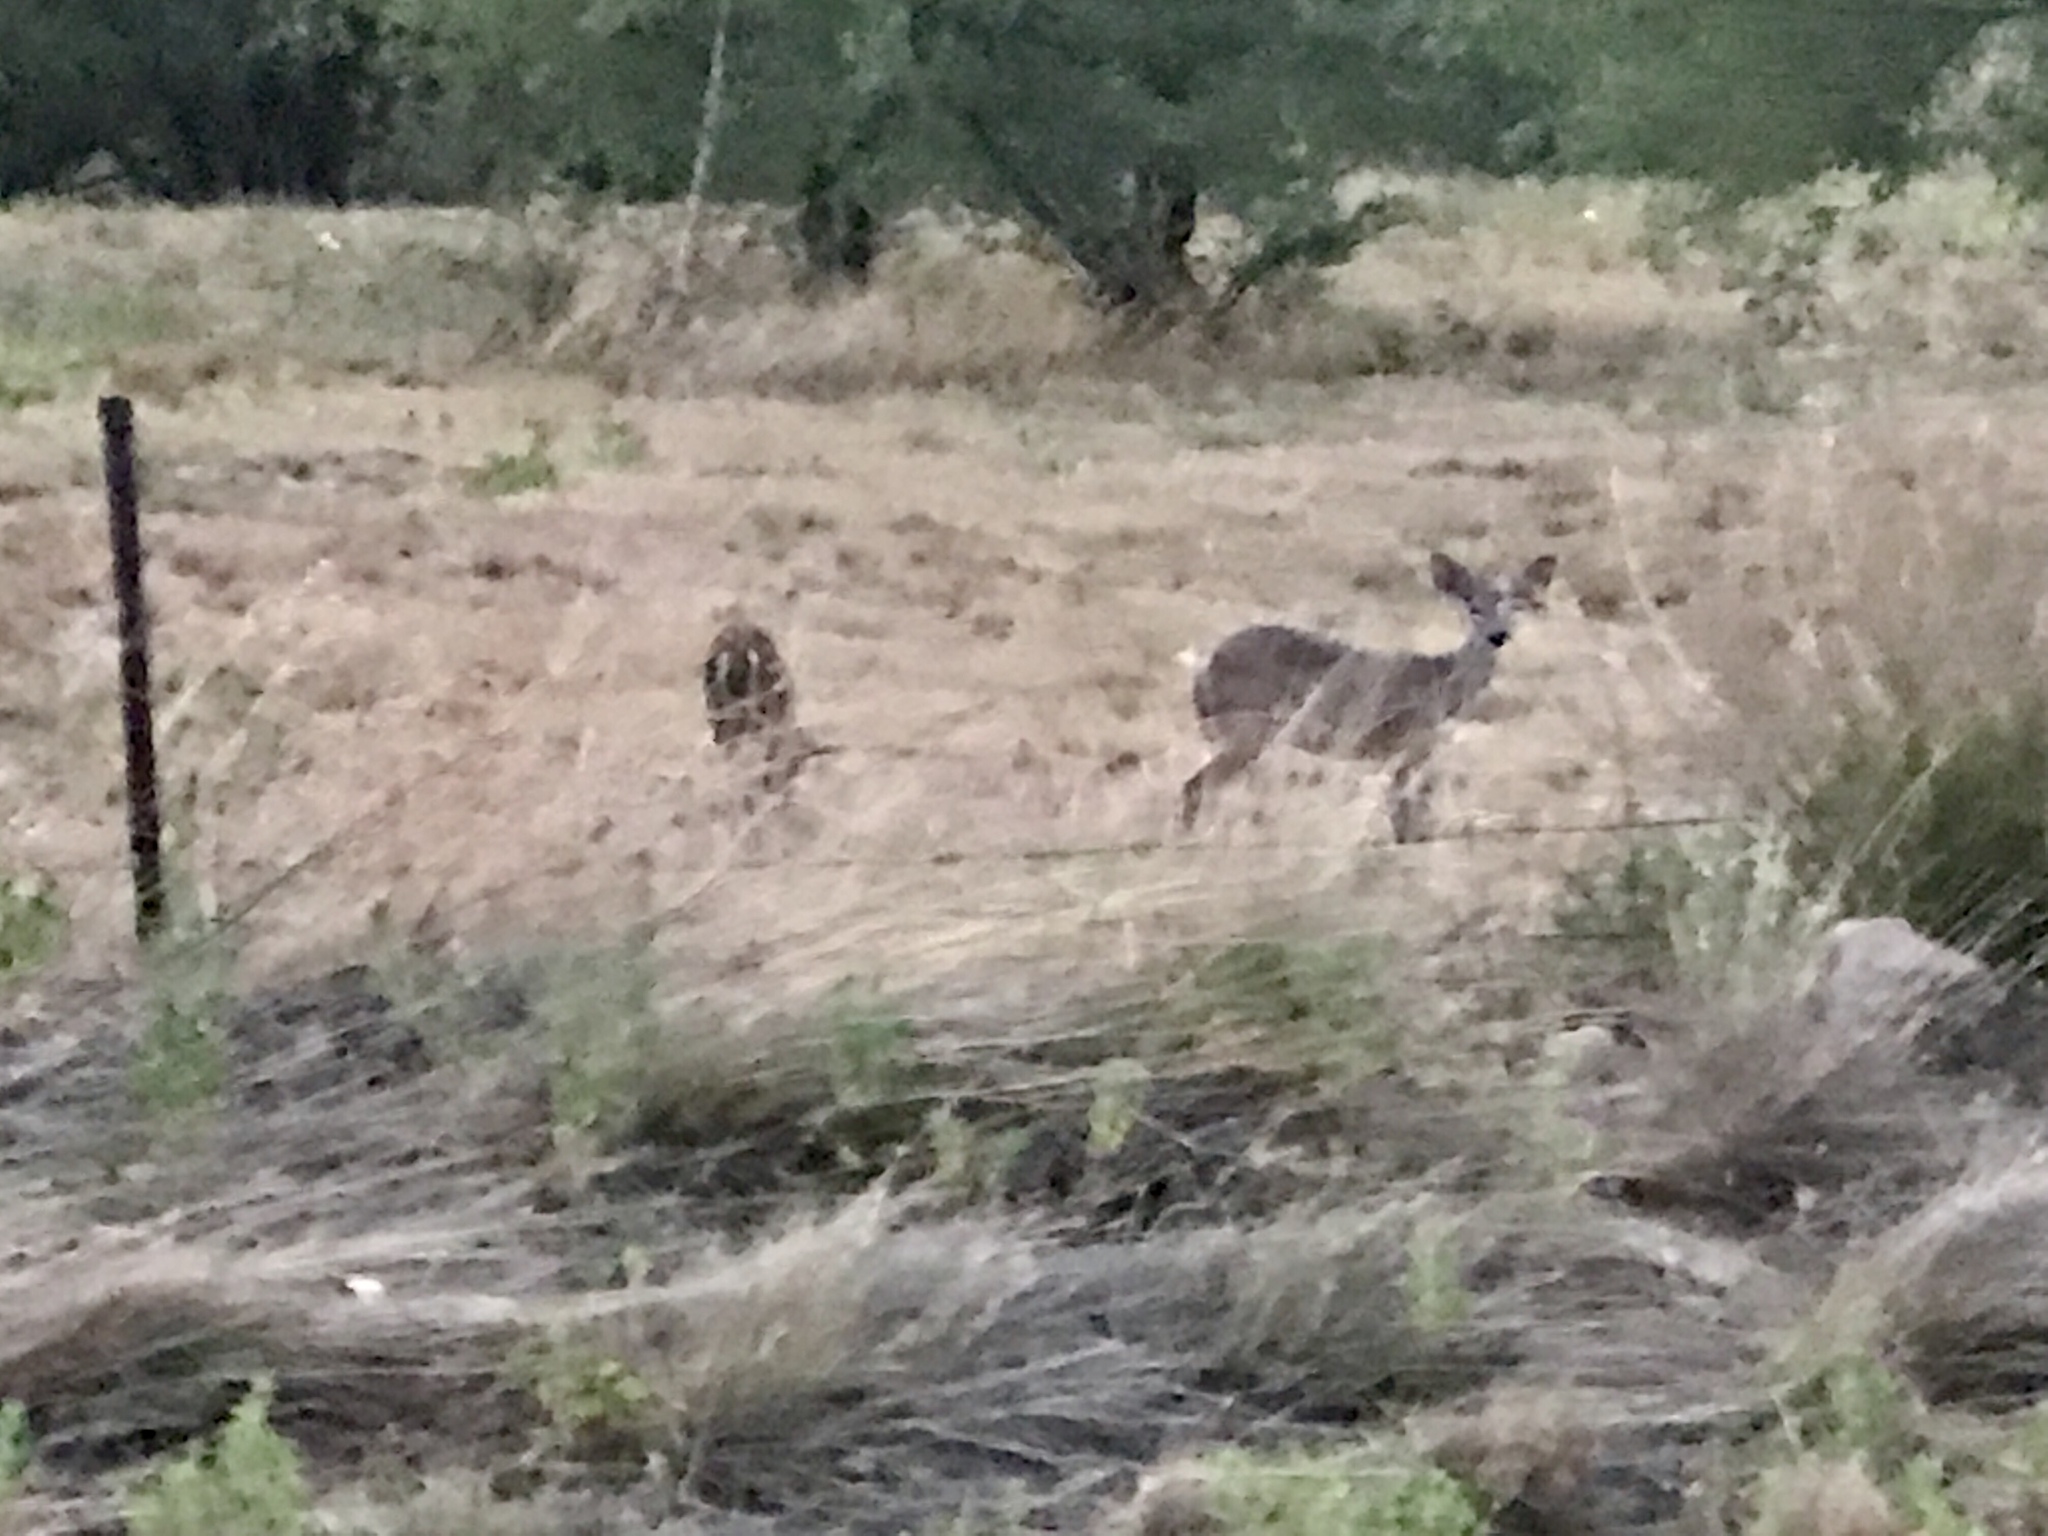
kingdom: Animalia
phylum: Chordata
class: Mammalia
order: Artiodactyla
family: Cervidae
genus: Odocoileus
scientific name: Odocoileus virginianus
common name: White-tailed deer
